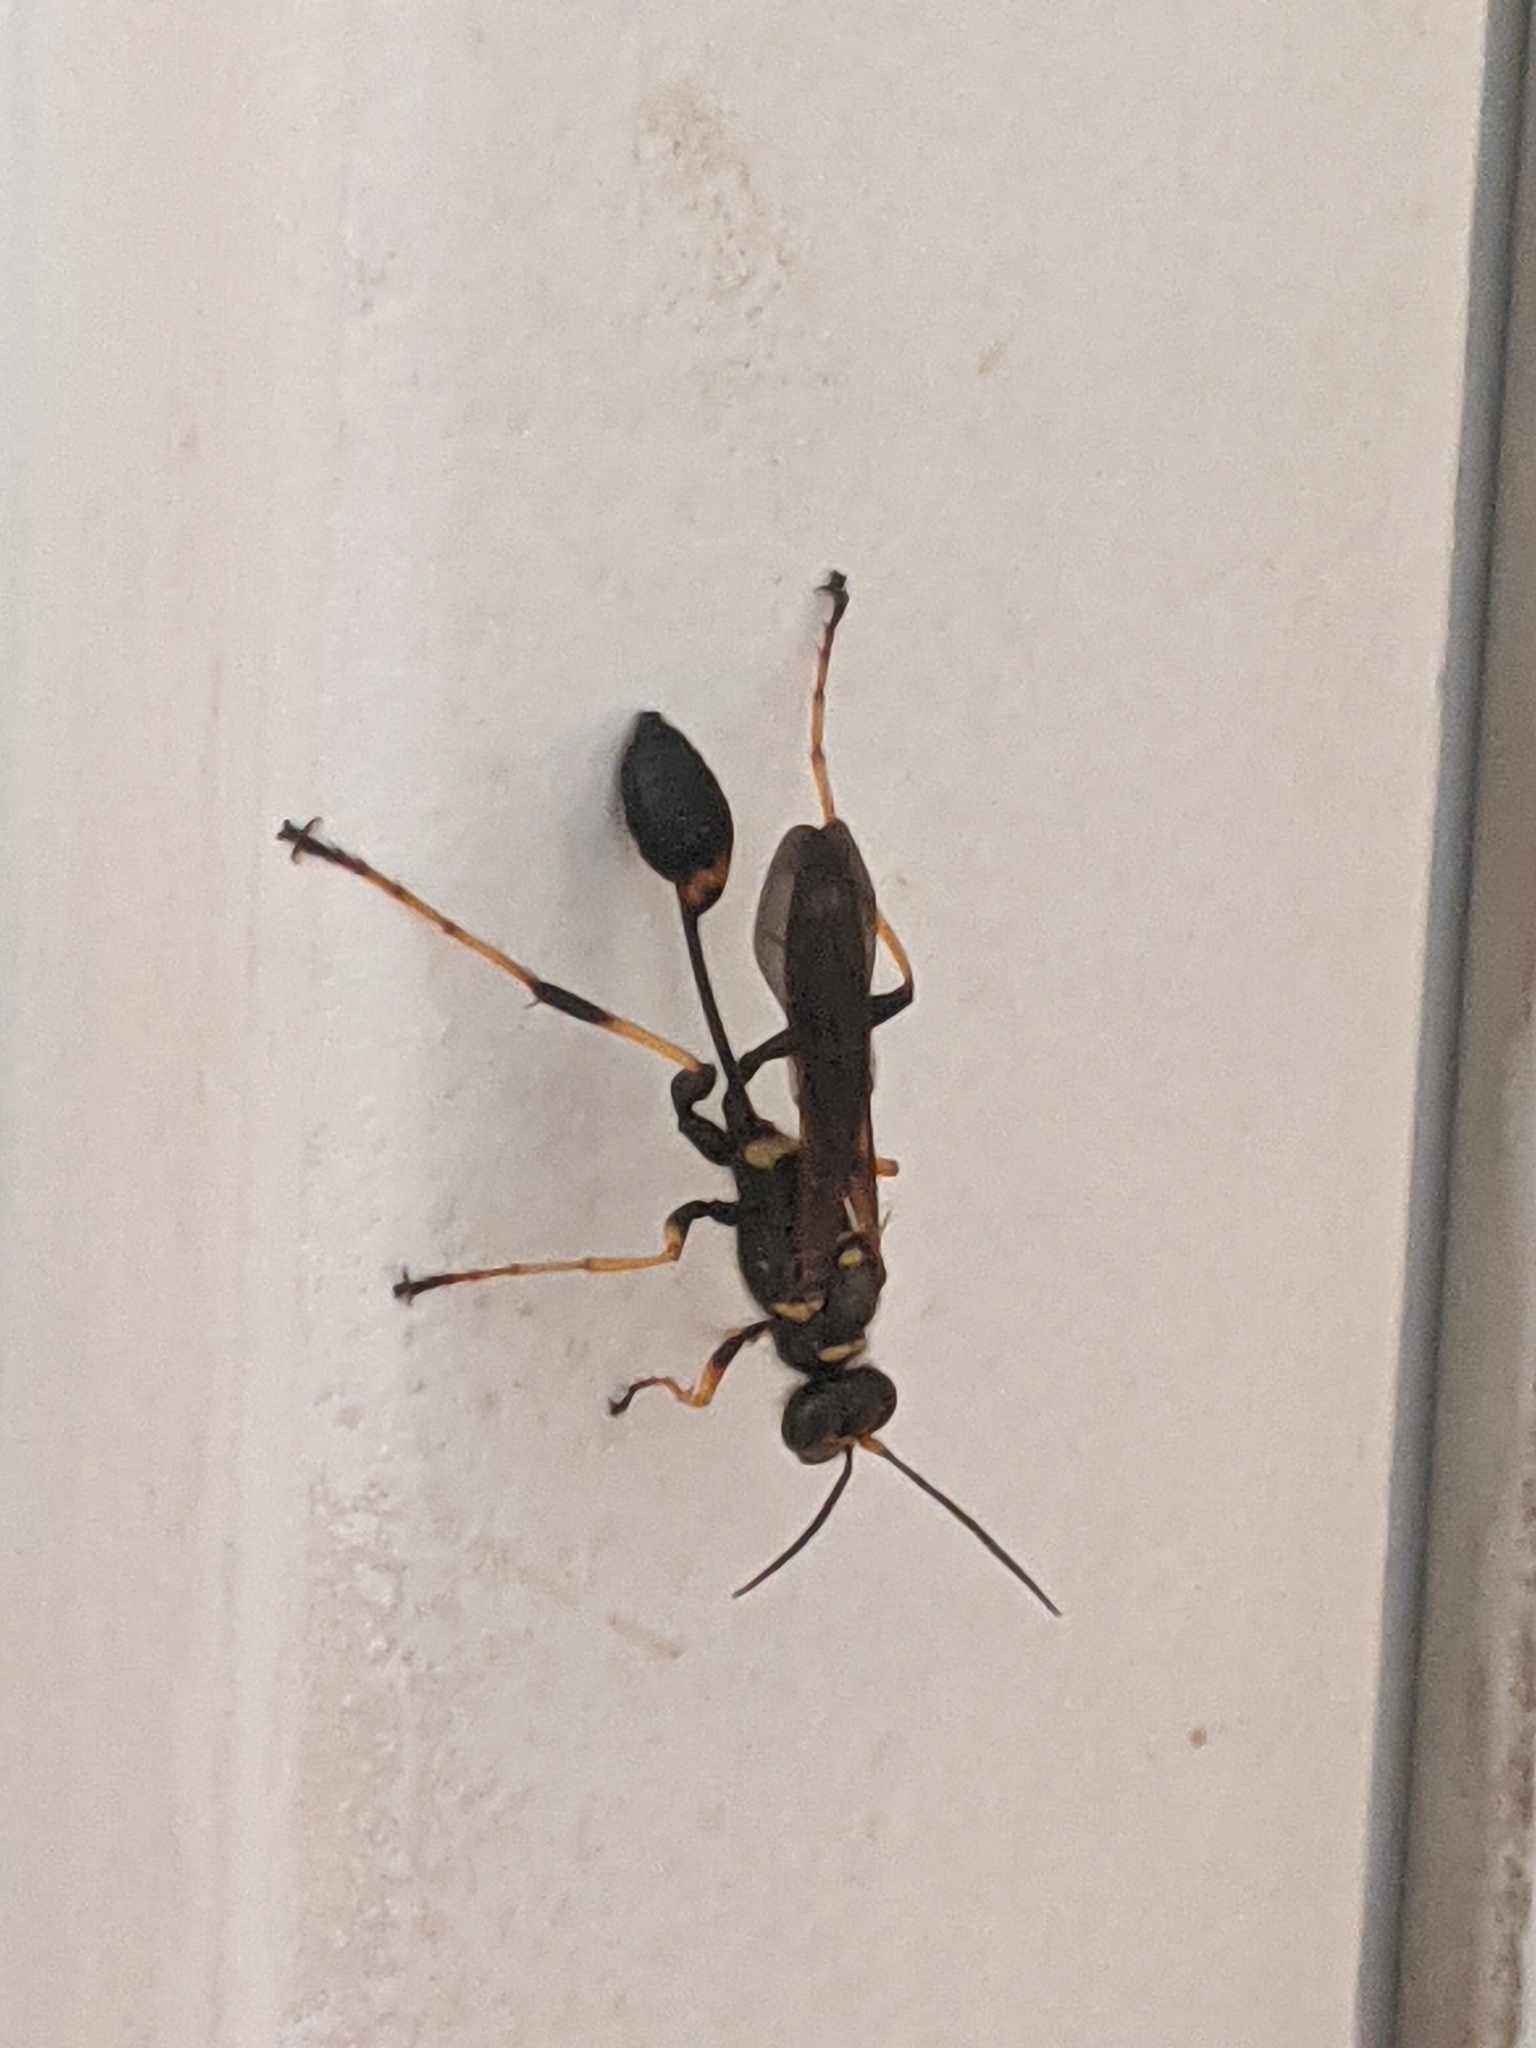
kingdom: Animalia
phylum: Arthropoda
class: Insecta
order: Hymenoptera
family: Sphecidae
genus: Sceliphron
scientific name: Sceliphron caementarium
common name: Mud dauber
